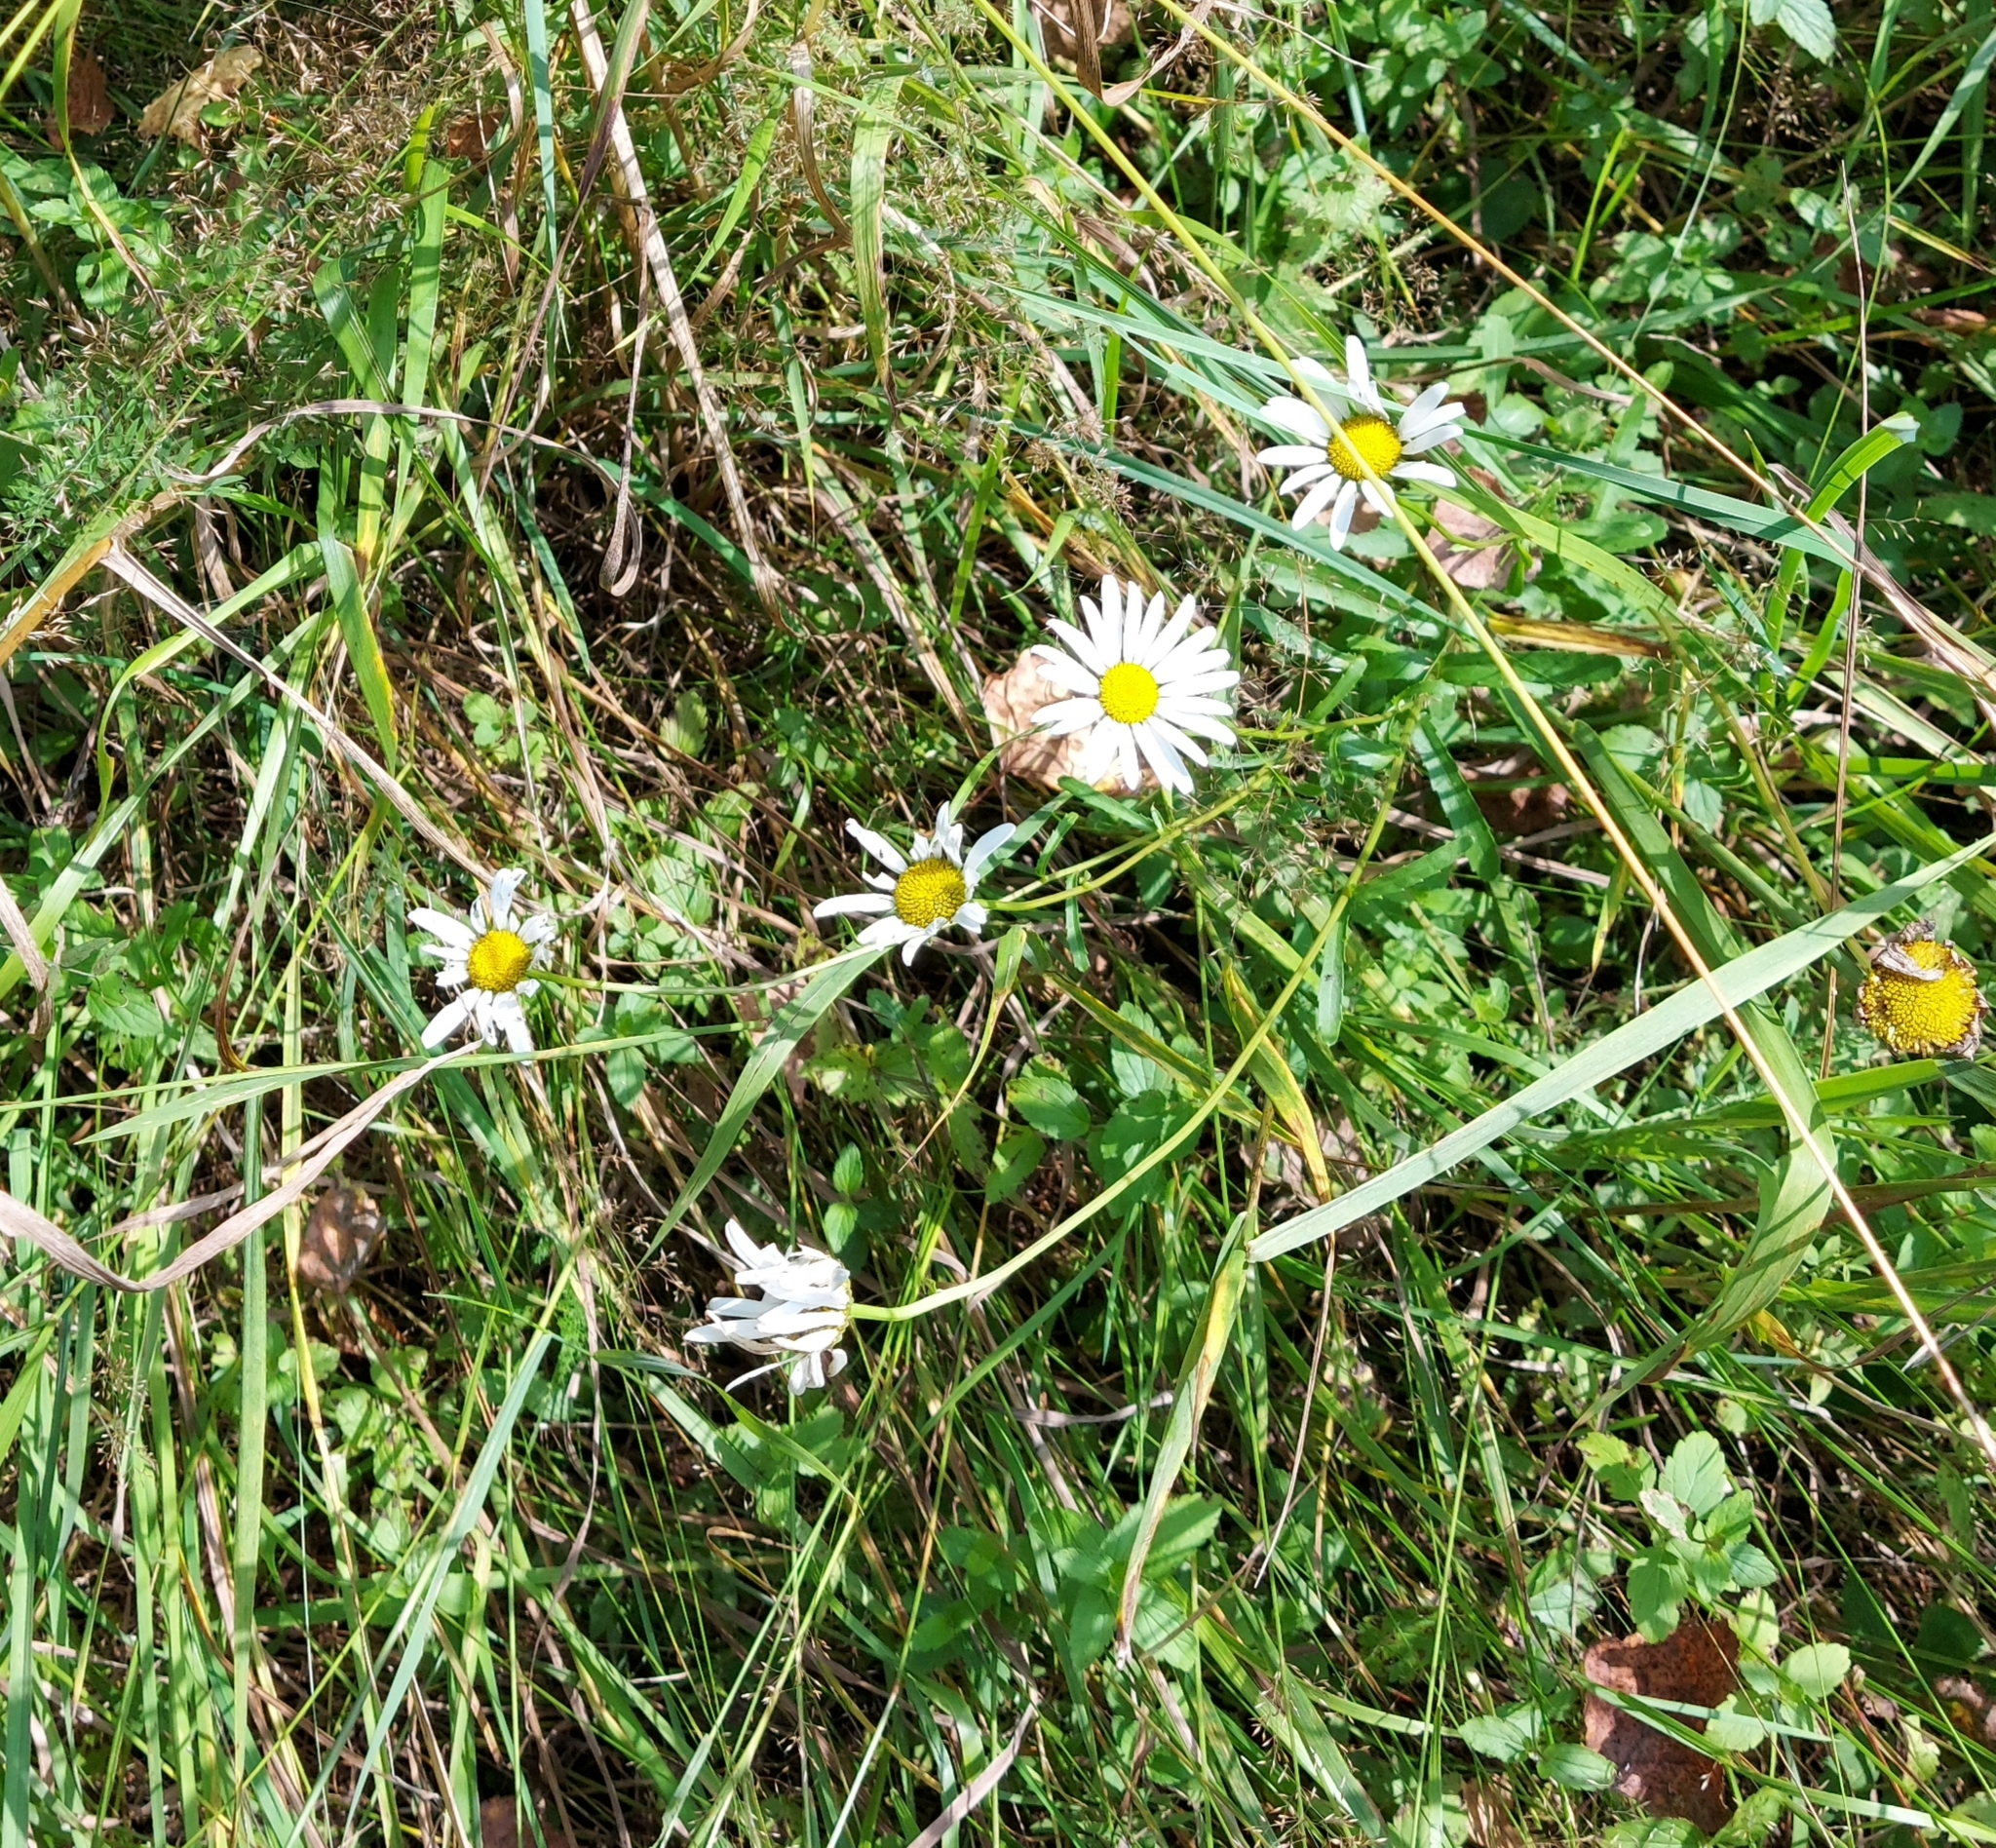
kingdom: Plantae
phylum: Tracheophyta
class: Magnoliopsida
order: Asterales
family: Asteraceae
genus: Tripleurospermum
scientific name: Tripleurospermum inodorum
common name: Scentless mayweed
